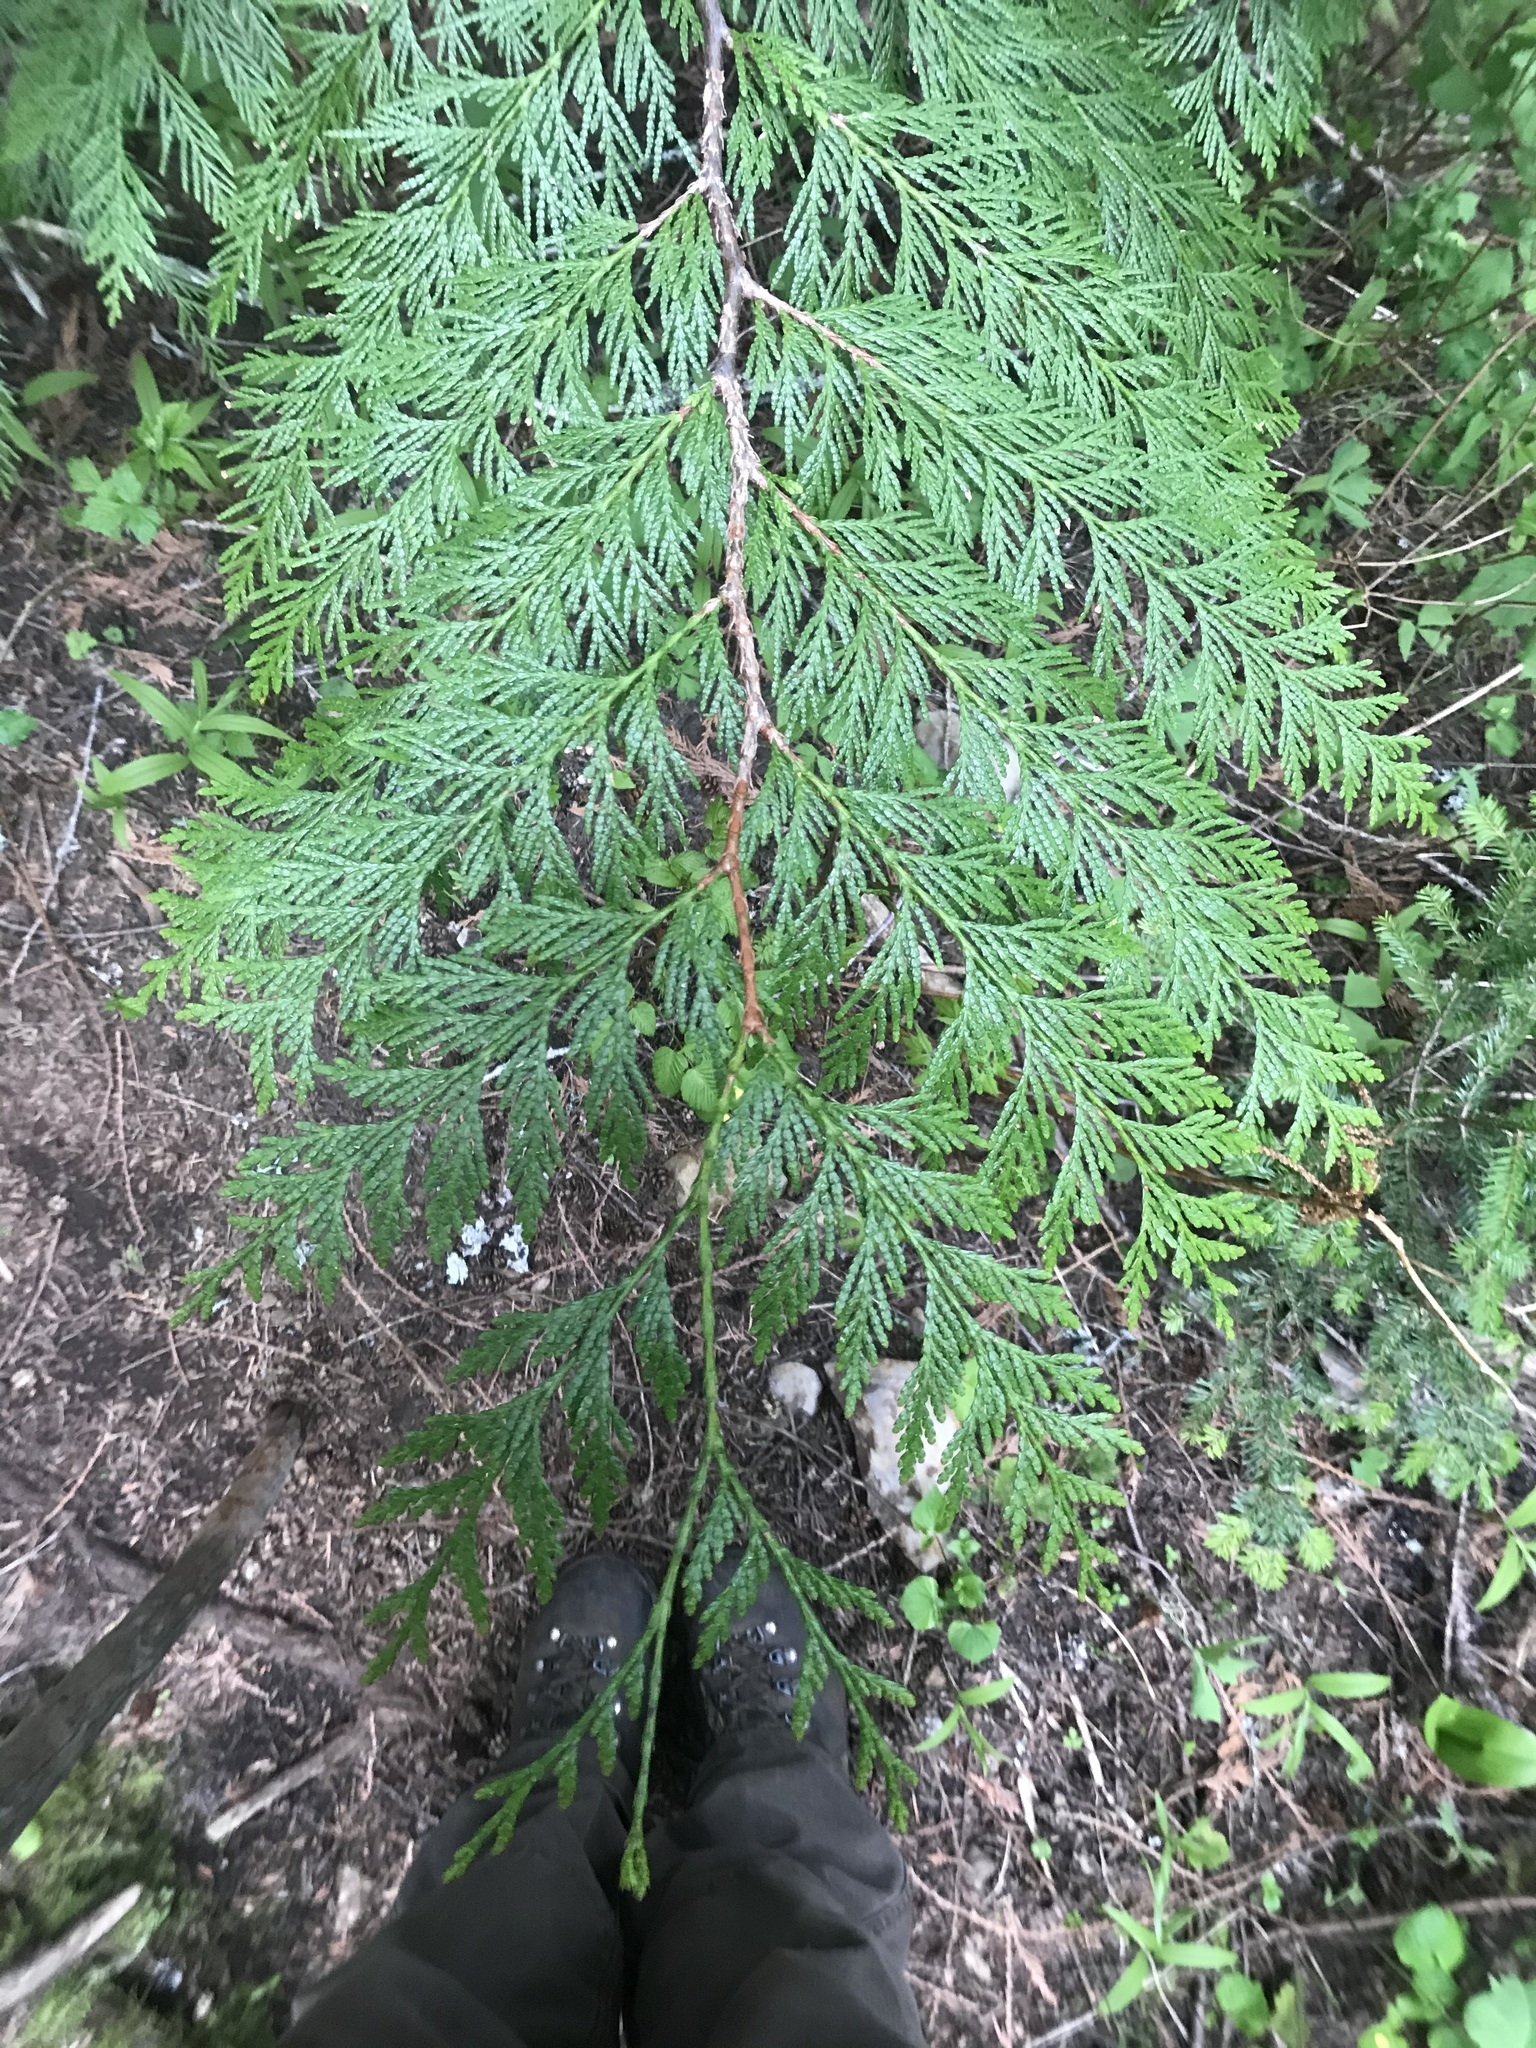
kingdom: Plantae
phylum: Tracheophyta
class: Pinopsida
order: Pinales
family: Cupressaceae
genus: Thuja
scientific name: Thuja plicata
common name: Western red-cedar
